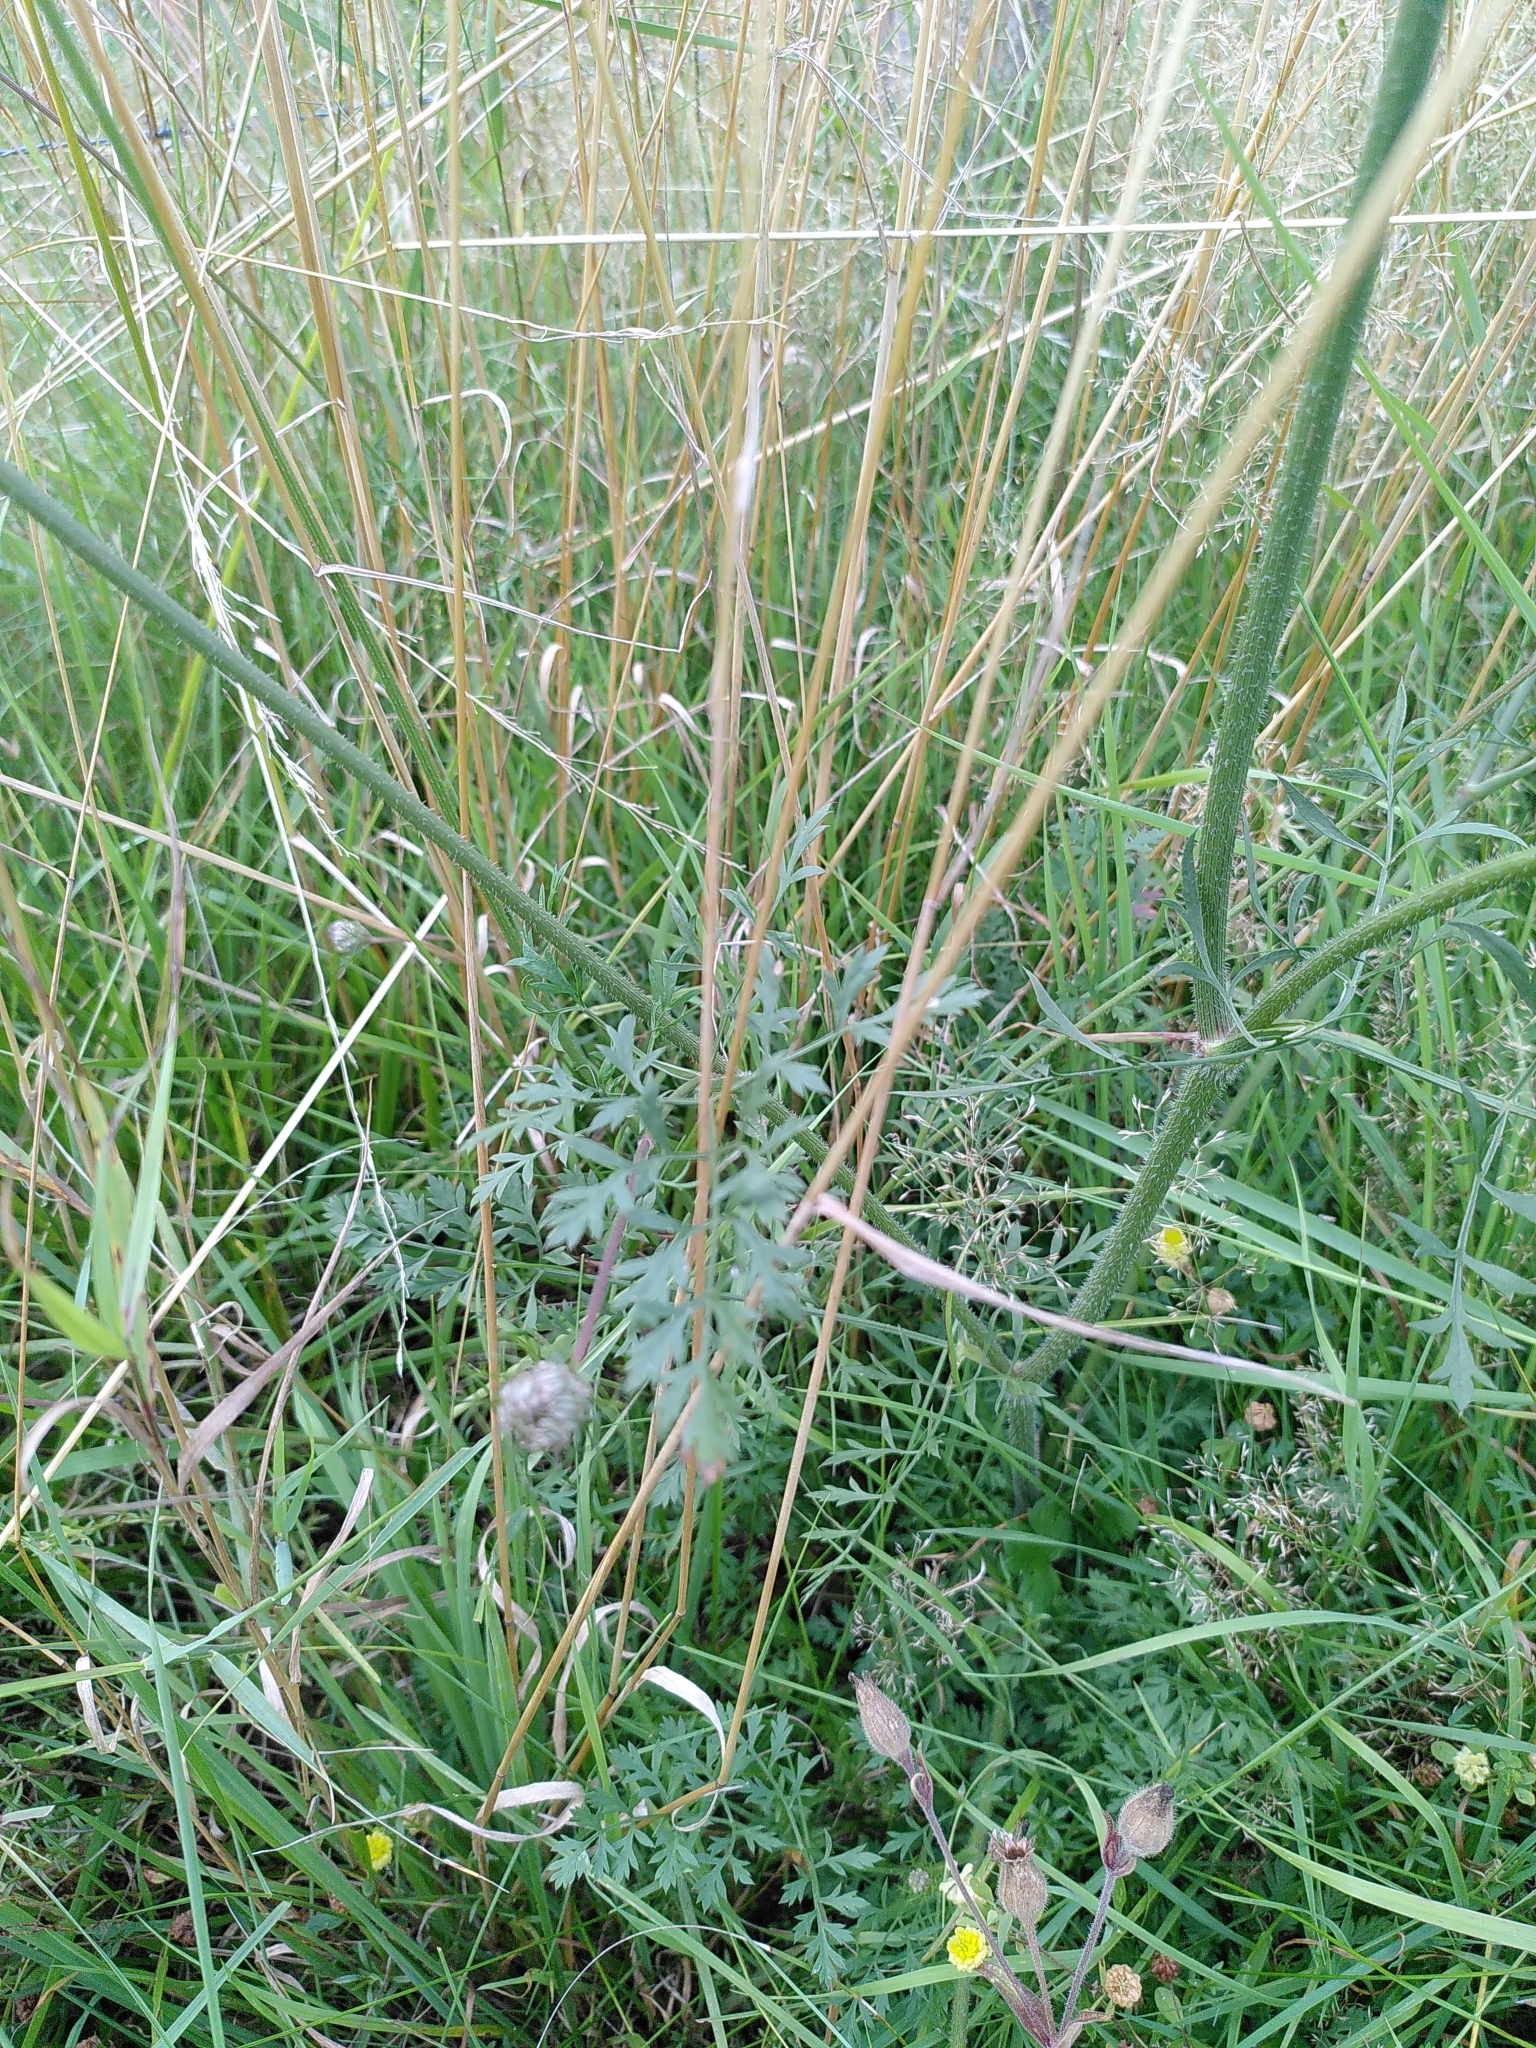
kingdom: Plantae
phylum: Tracheophyta
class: Magnoliopsida
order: Apiales
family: Apiaceae
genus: Daucus
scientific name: Daucus carota
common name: Wild carrot
